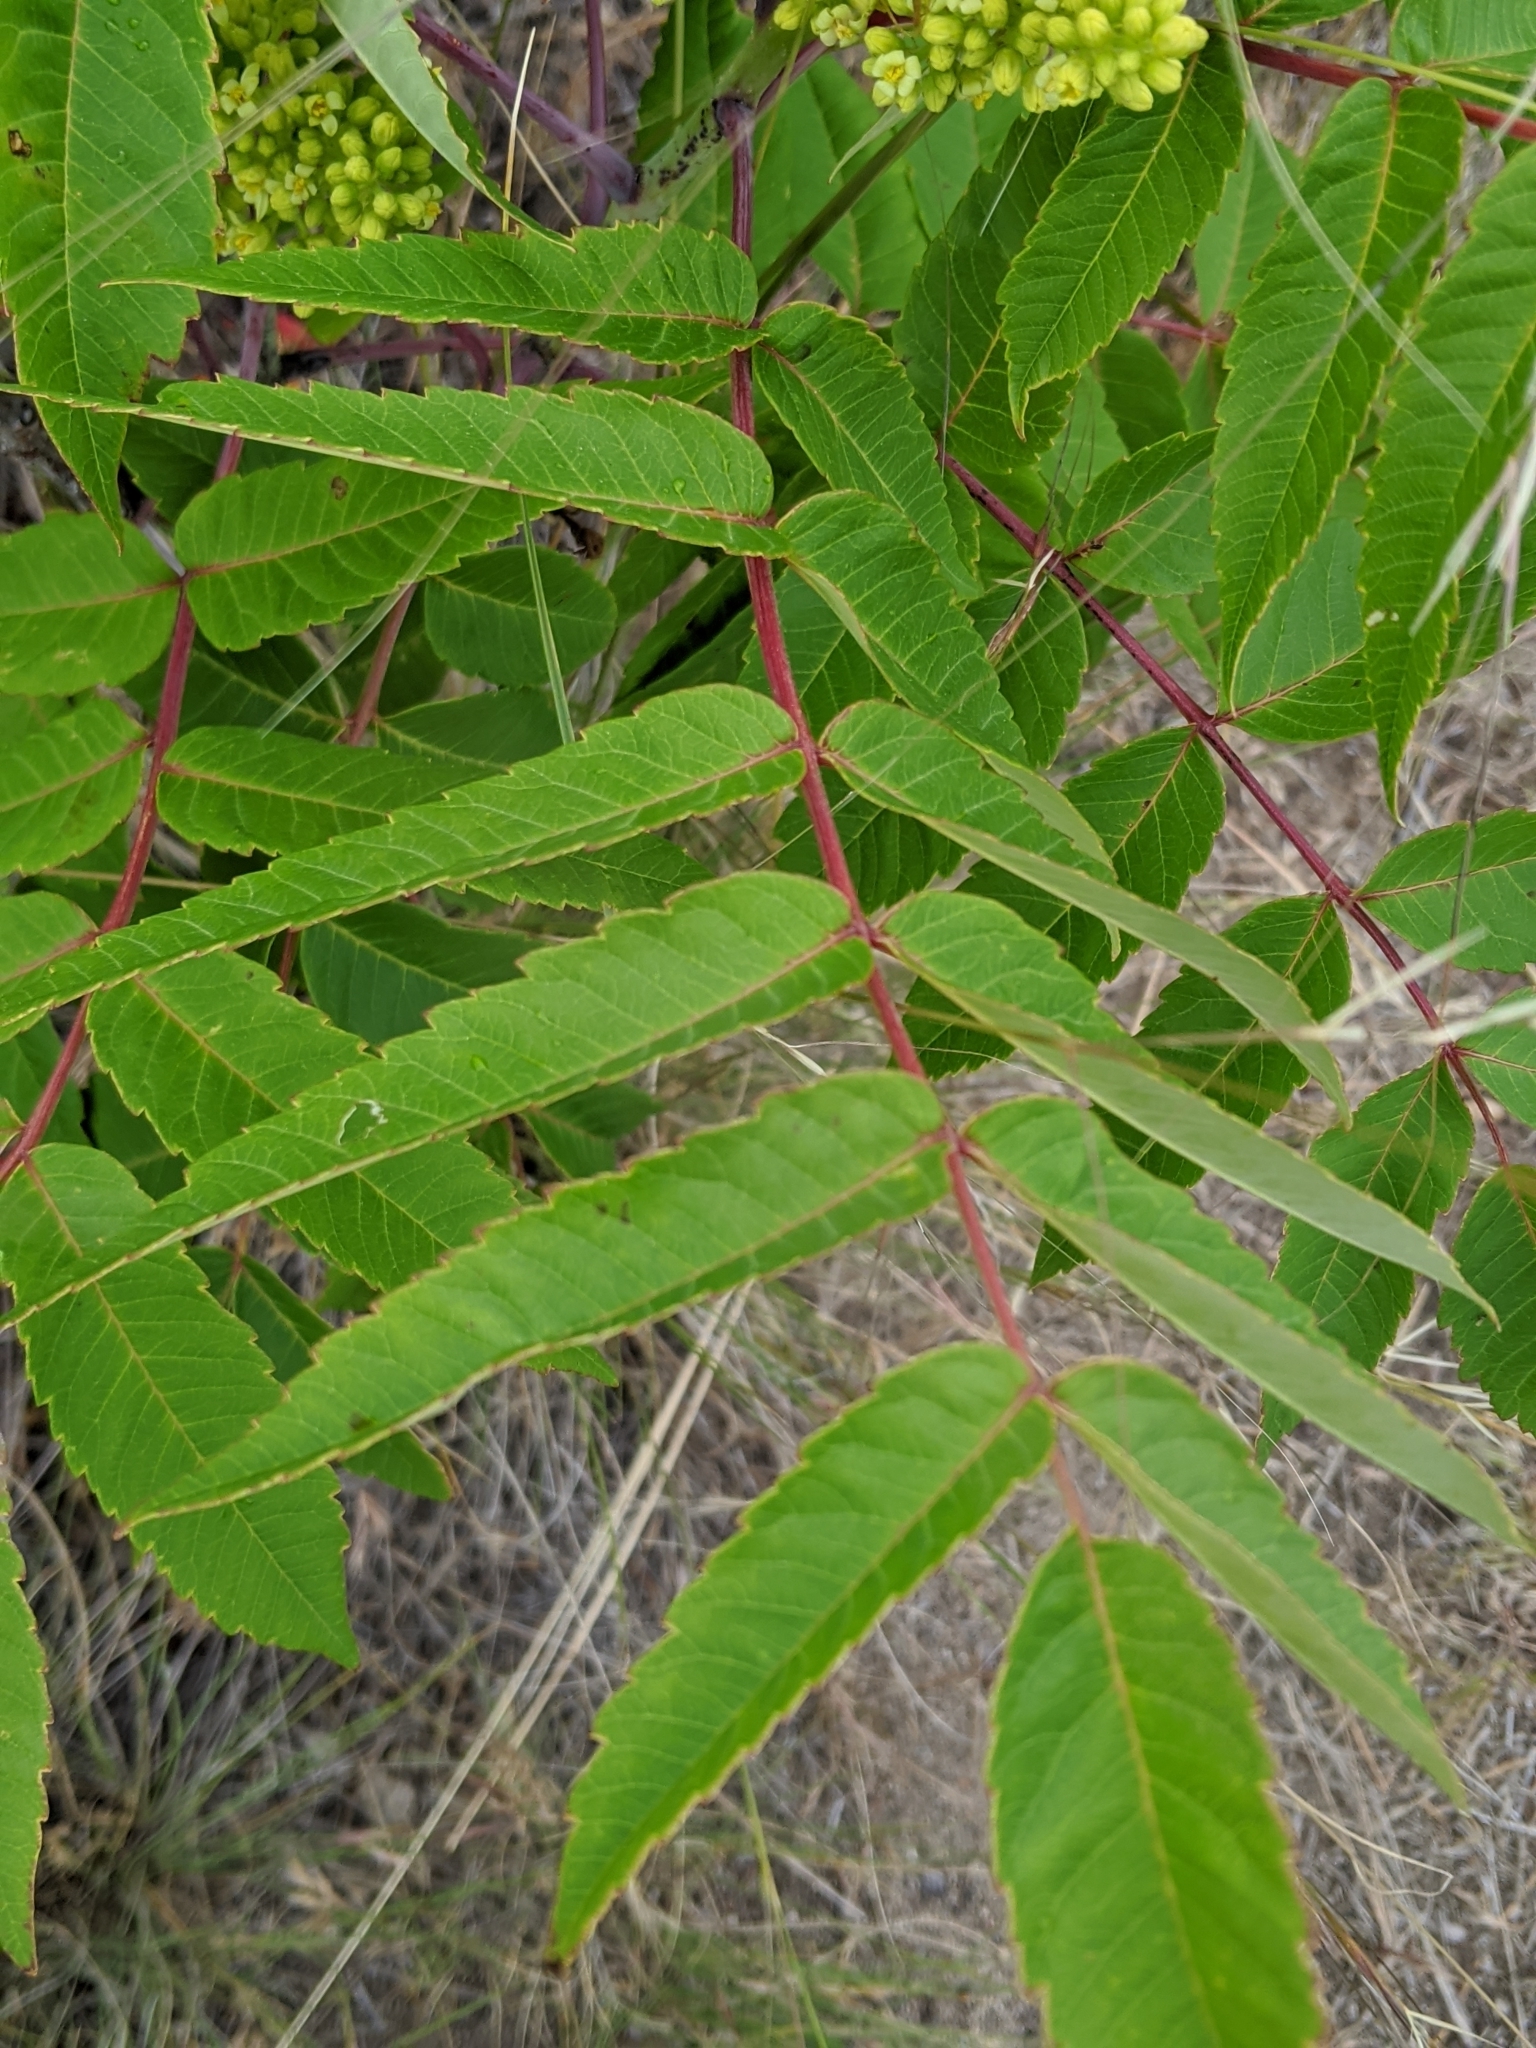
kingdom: Plantae
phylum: Tracheophyta
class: Magnoliopsida
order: Sapindales
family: Anacardiaceae
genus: Rhus
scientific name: Rhus glabra
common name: Scarlet sumac
